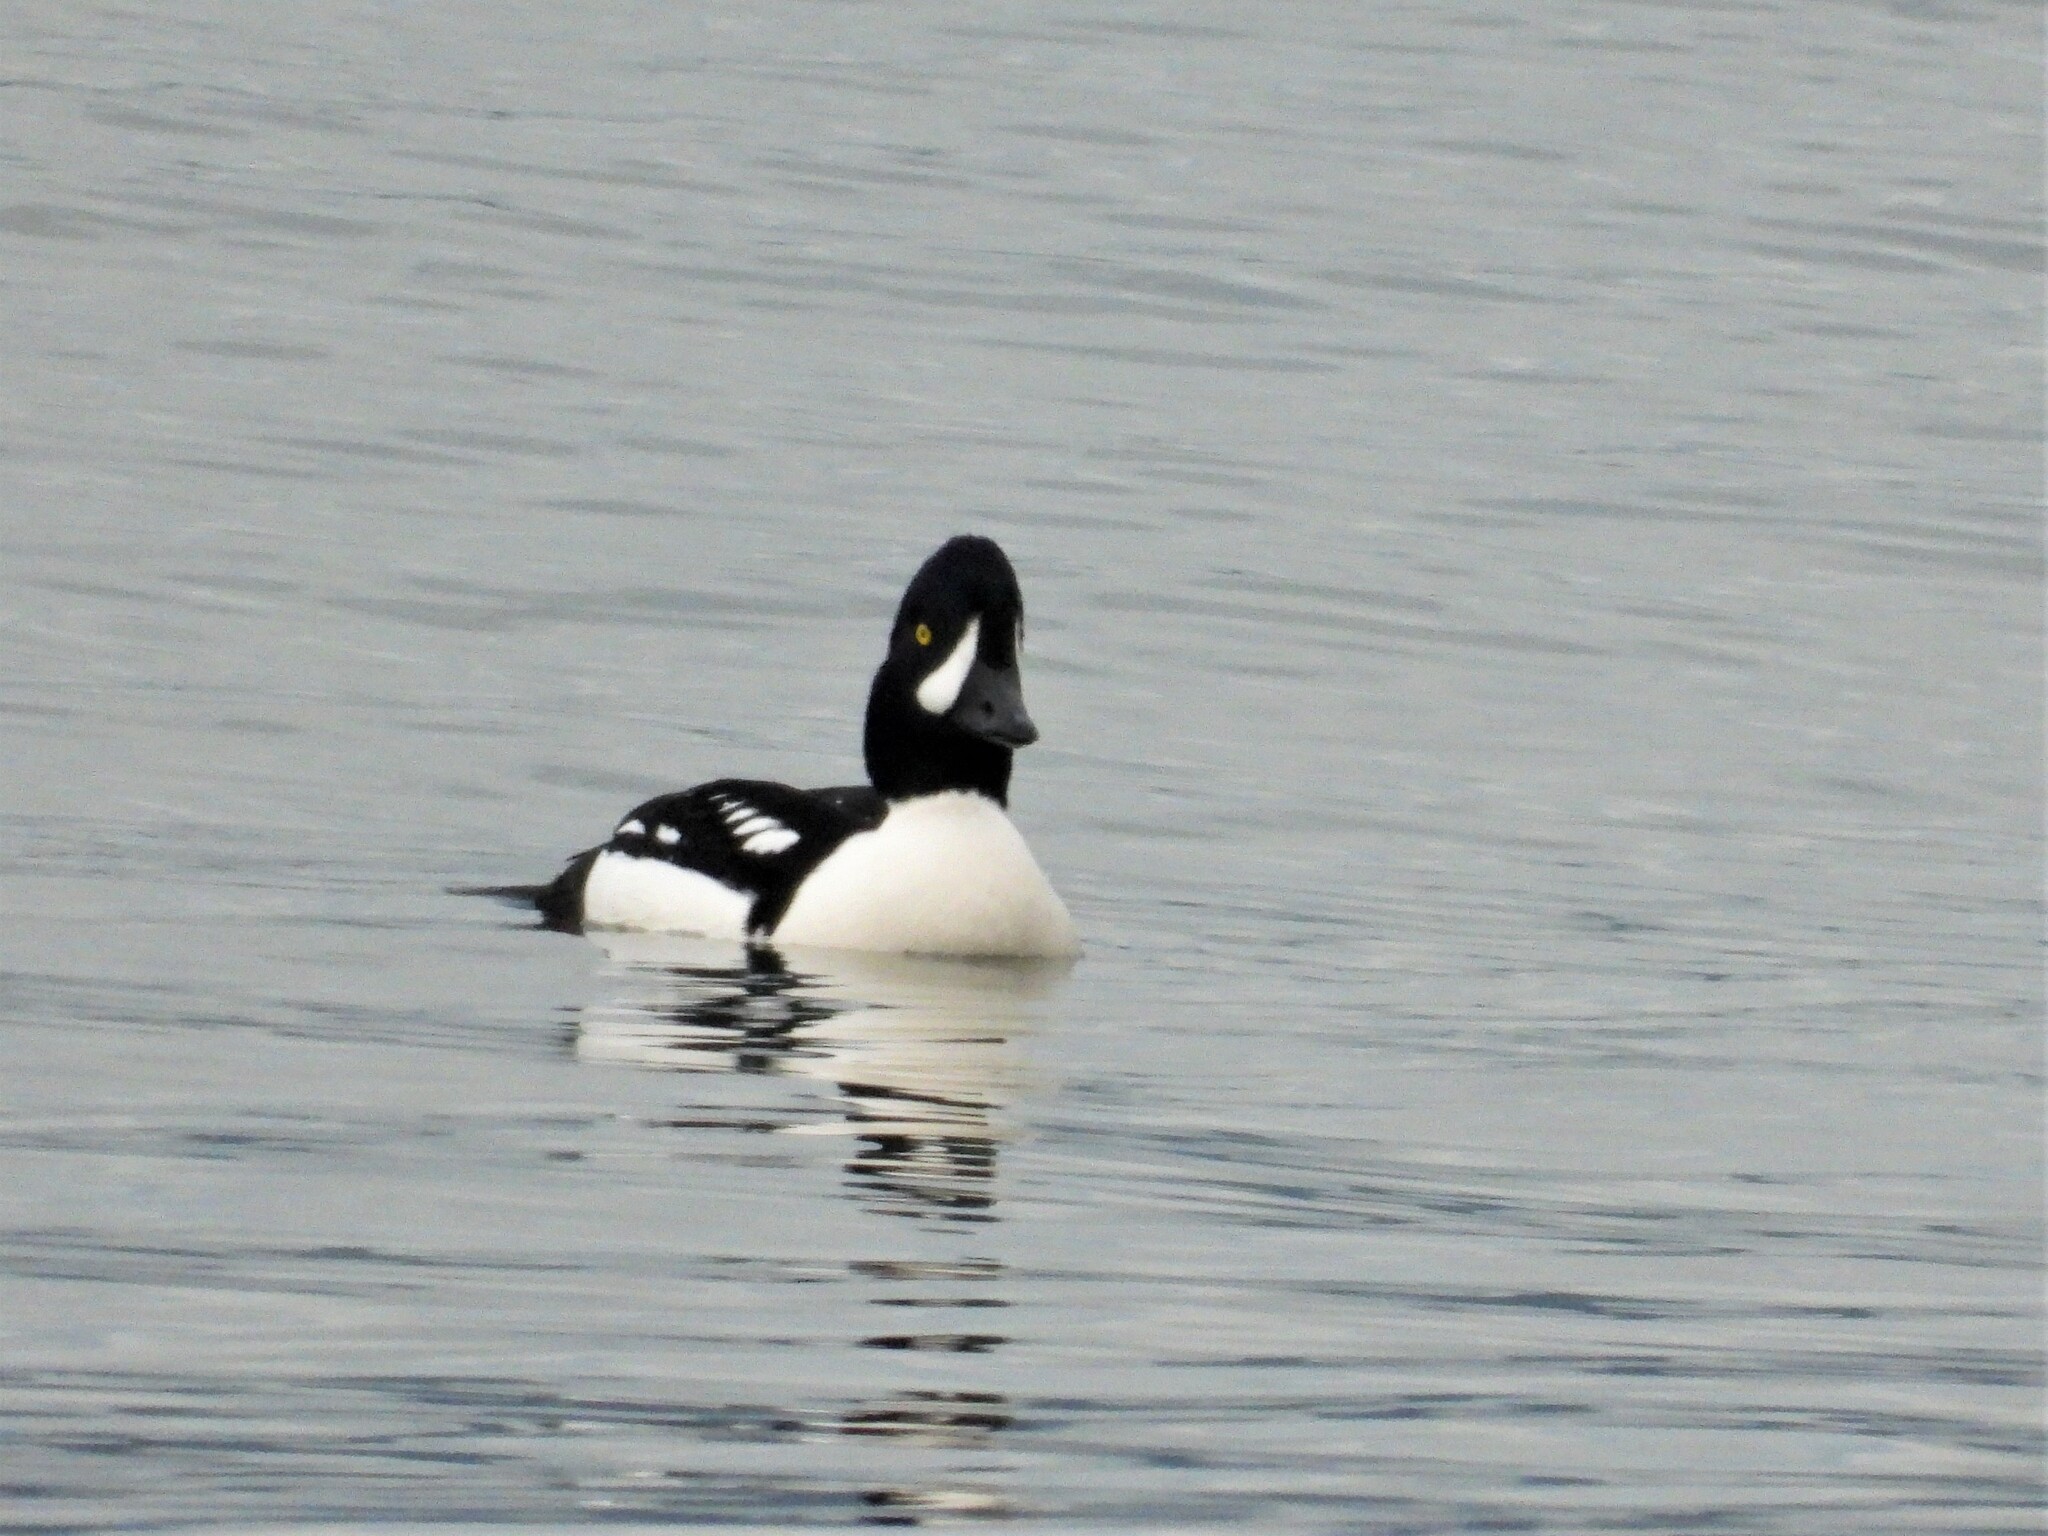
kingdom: Animalia
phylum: Chordata
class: Aves
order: Anseriformes
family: Anatidae
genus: Bucephala
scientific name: Bucephala islandica
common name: Barrow's goldeneye
